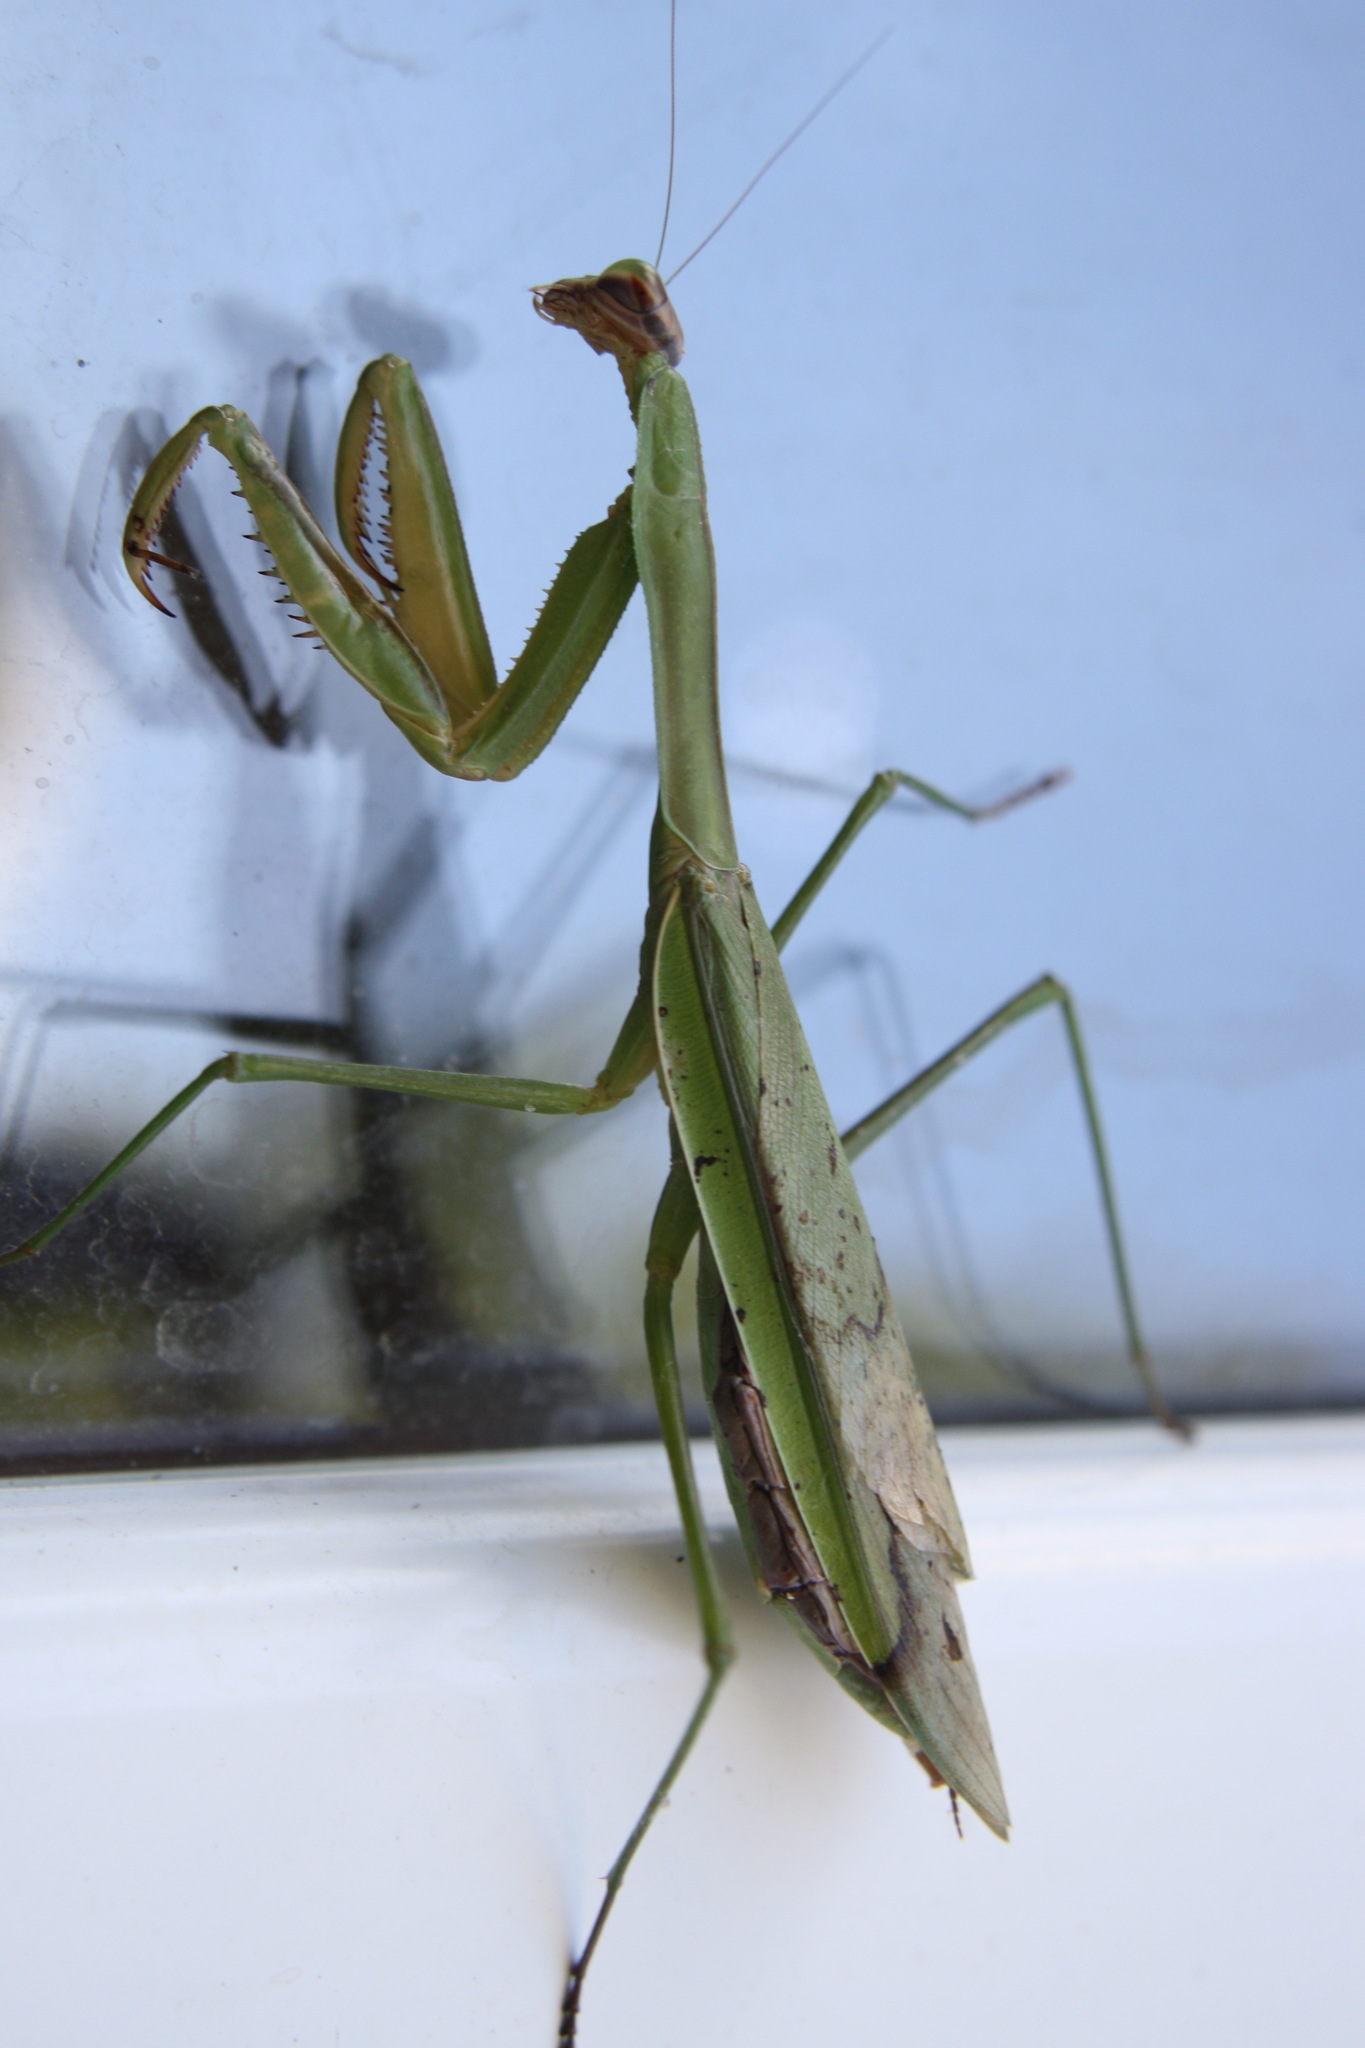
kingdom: Animalia
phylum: Arthropoda
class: Insecta
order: Mantodea
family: Mantidae
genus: Tenodera
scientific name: Tenodera sinensis
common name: Chinese mantis
